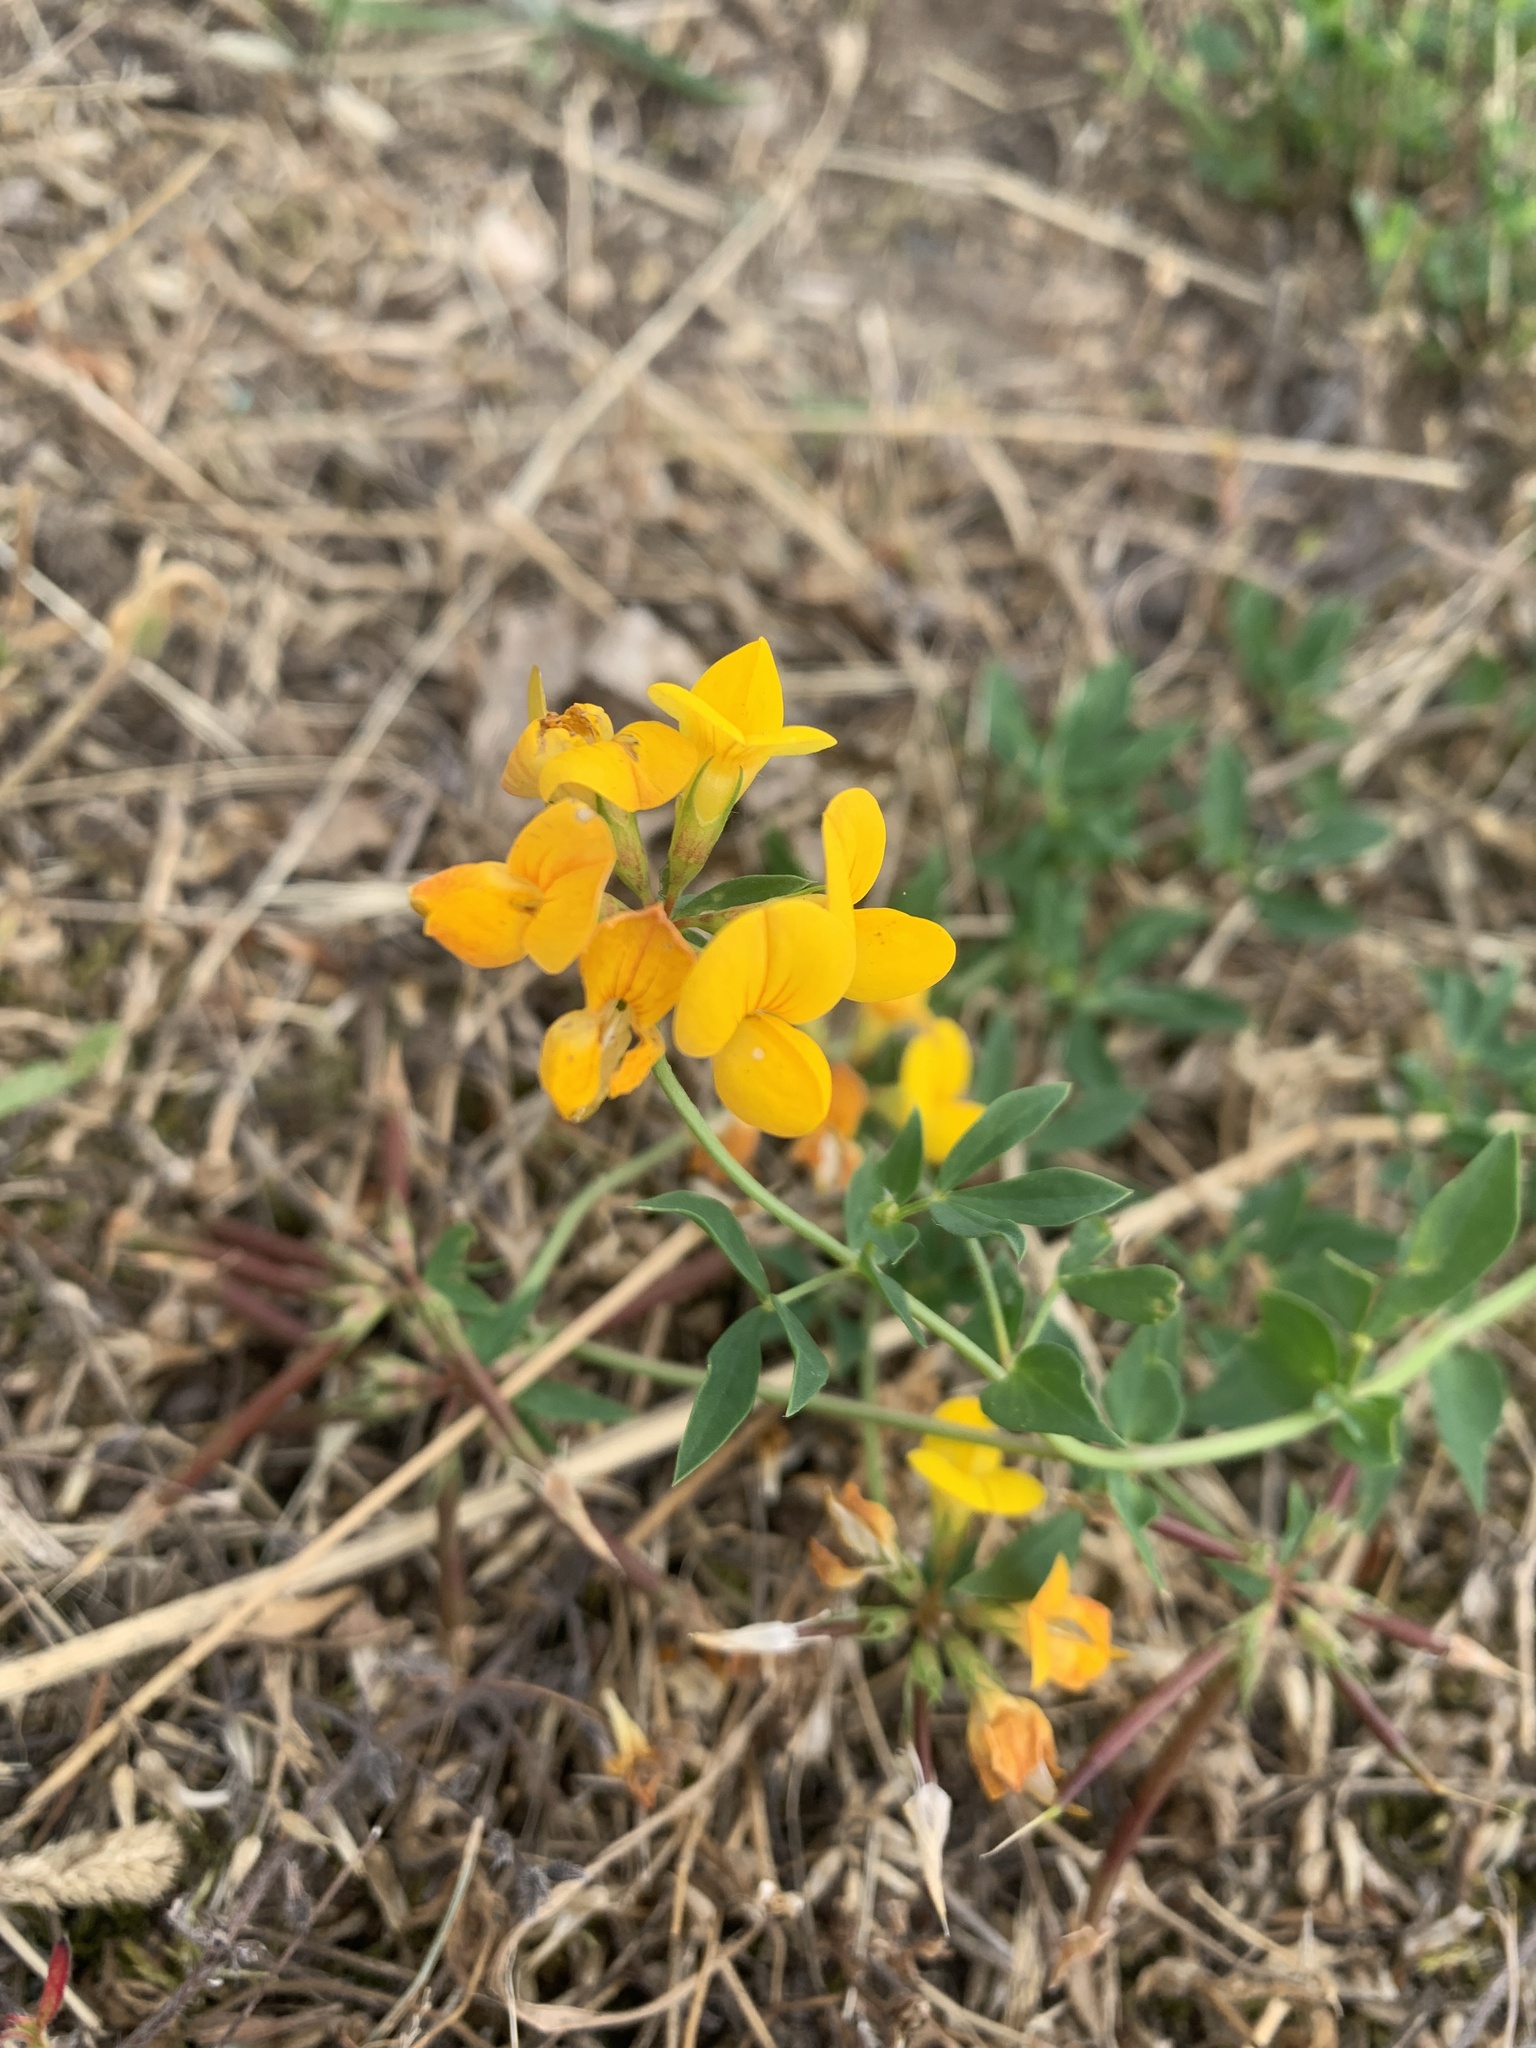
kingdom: Plantae
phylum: Tracheophyta
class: Magnoliopsida
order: Fabales
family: Fabaceae
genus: Lotus
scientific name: Lotus corniculatus
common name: Common bird's-foot-trefoil
